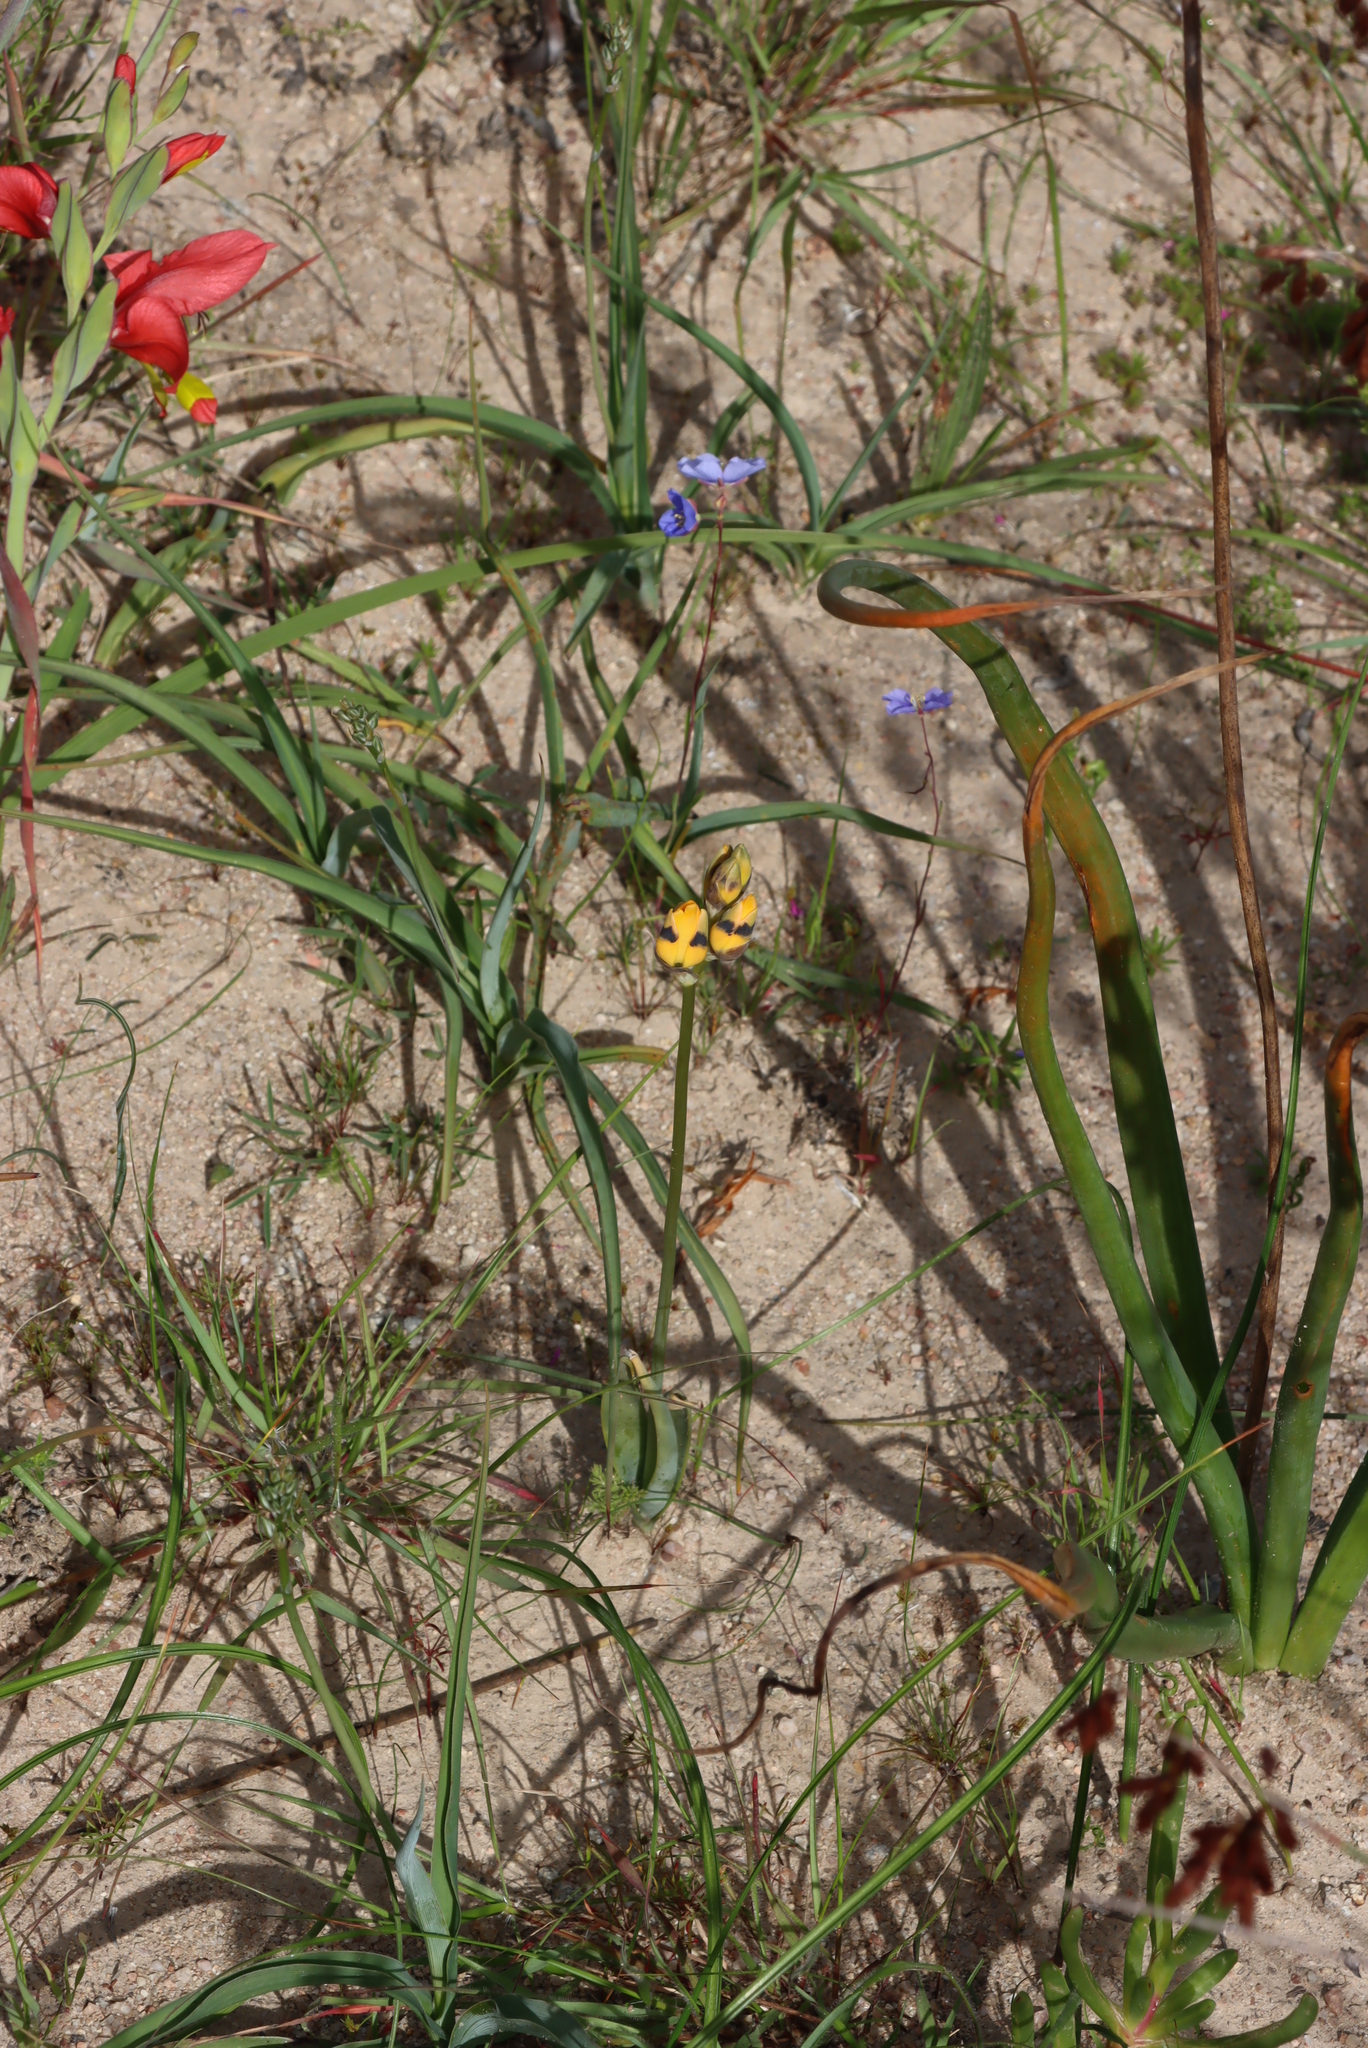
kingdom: Plantae
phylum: Tracheophyta
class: Liliopsida
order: Asparagales
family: Asparagaceae
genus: Ornithogalum
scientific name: Ornithogalum maculatum
